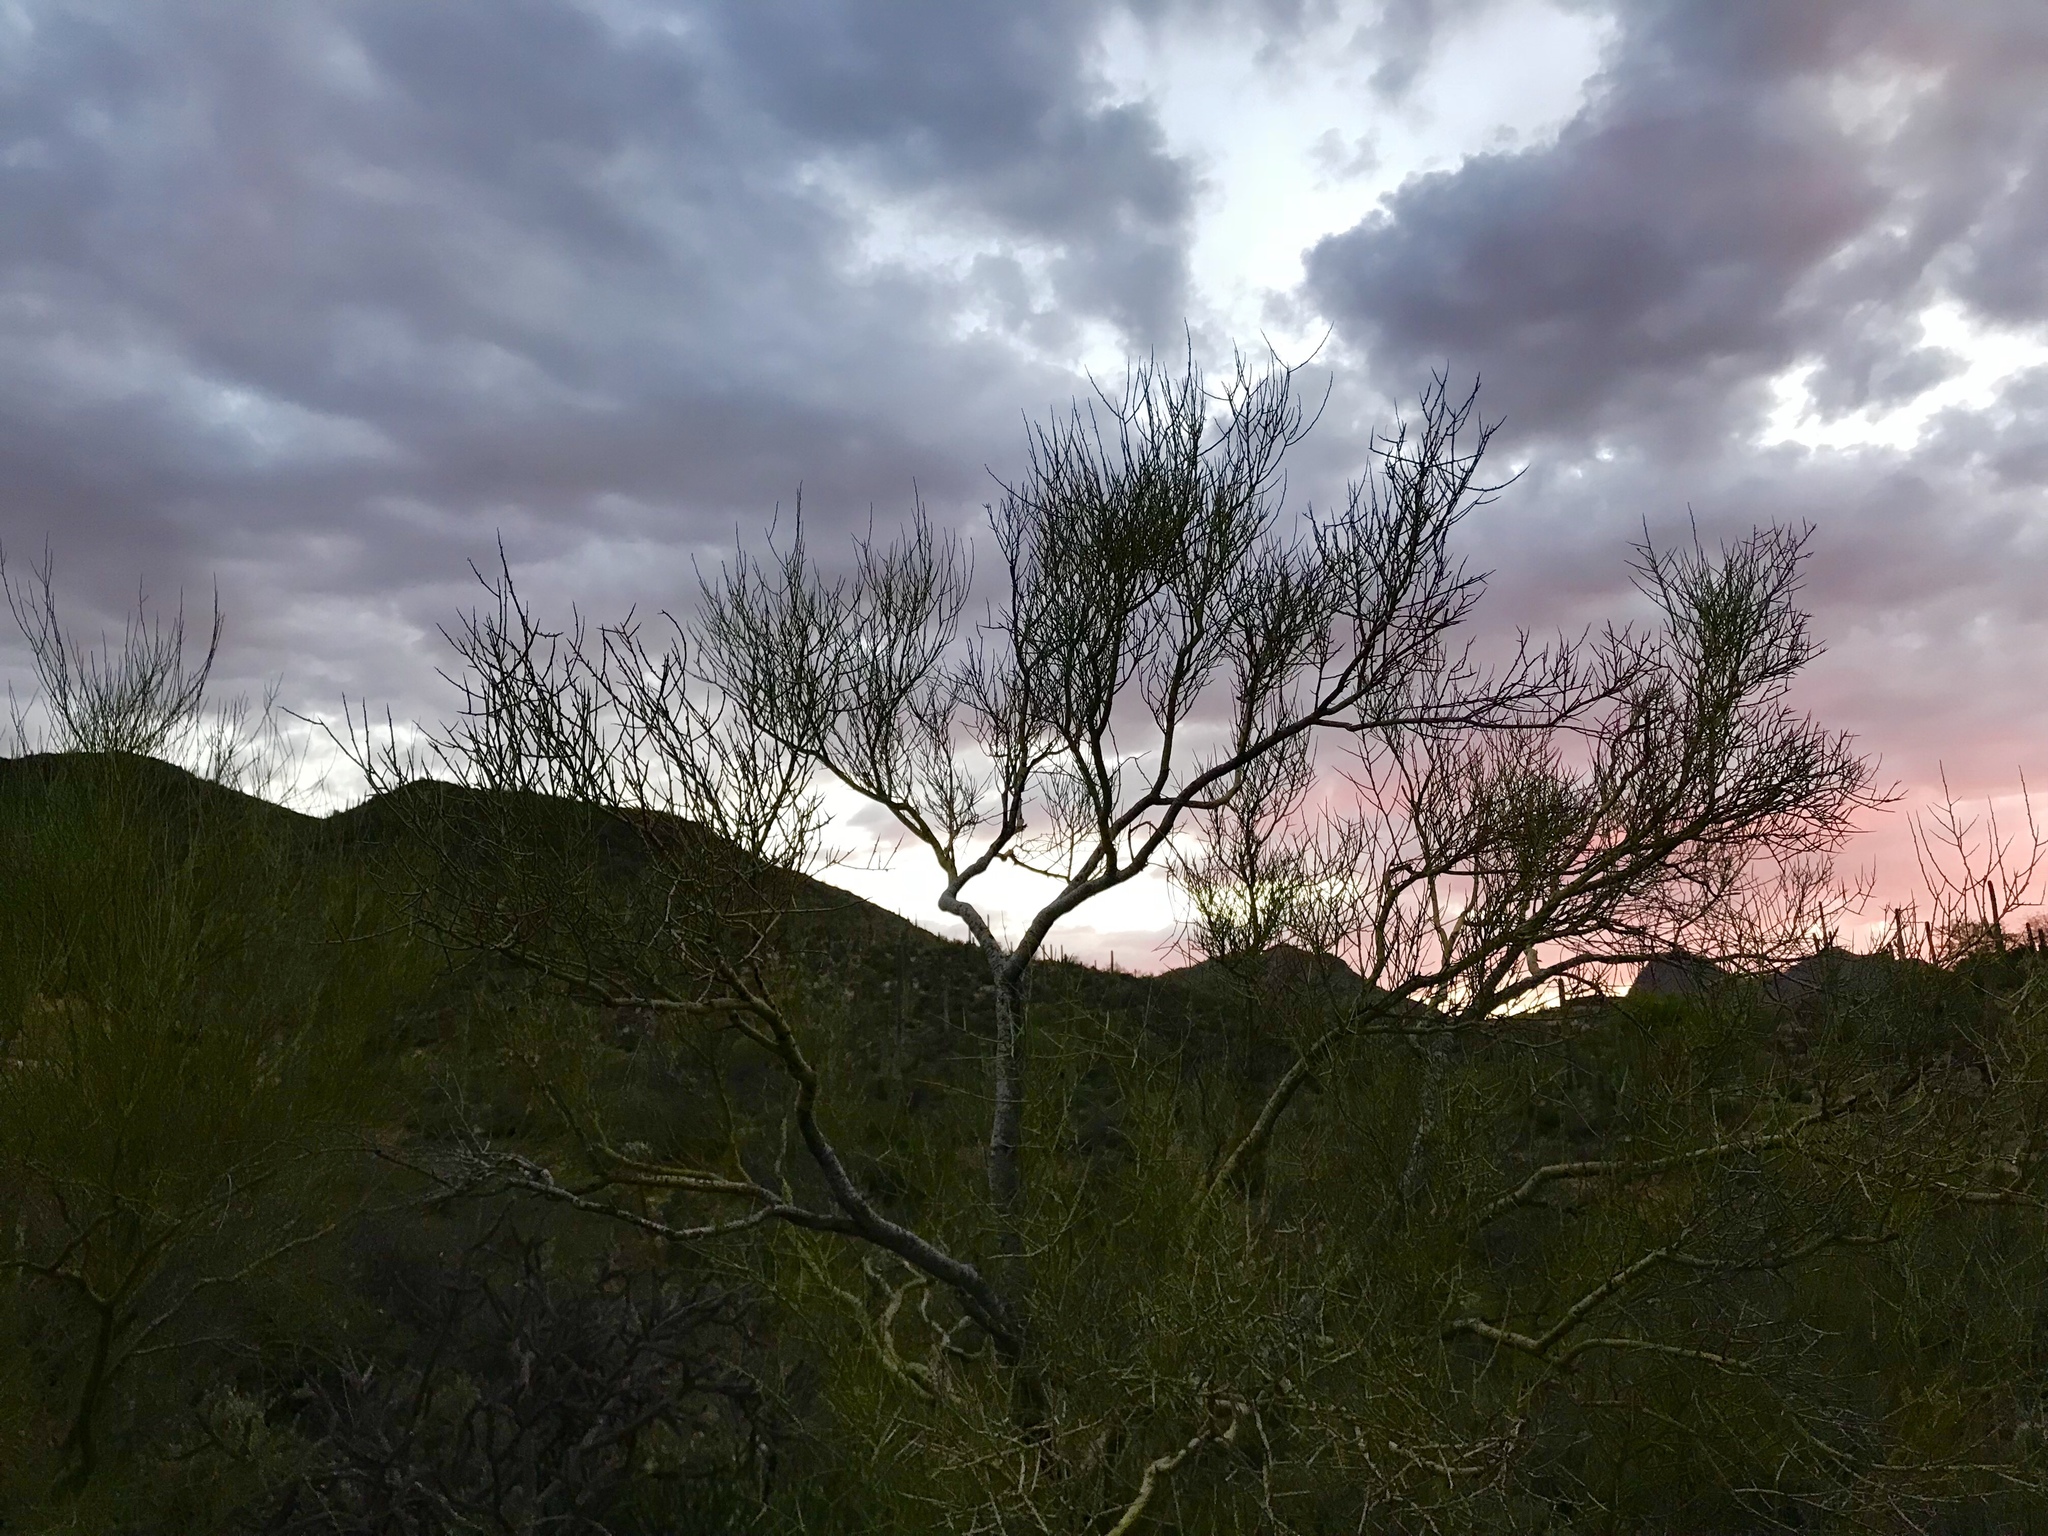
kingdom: Plantae
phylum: Tracheophyta
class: Magnoliopsida
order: Fabales
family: Fabaceae
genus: Parkinsonia
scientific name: Parkinsonia microphylla
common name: Yellow paloverde
